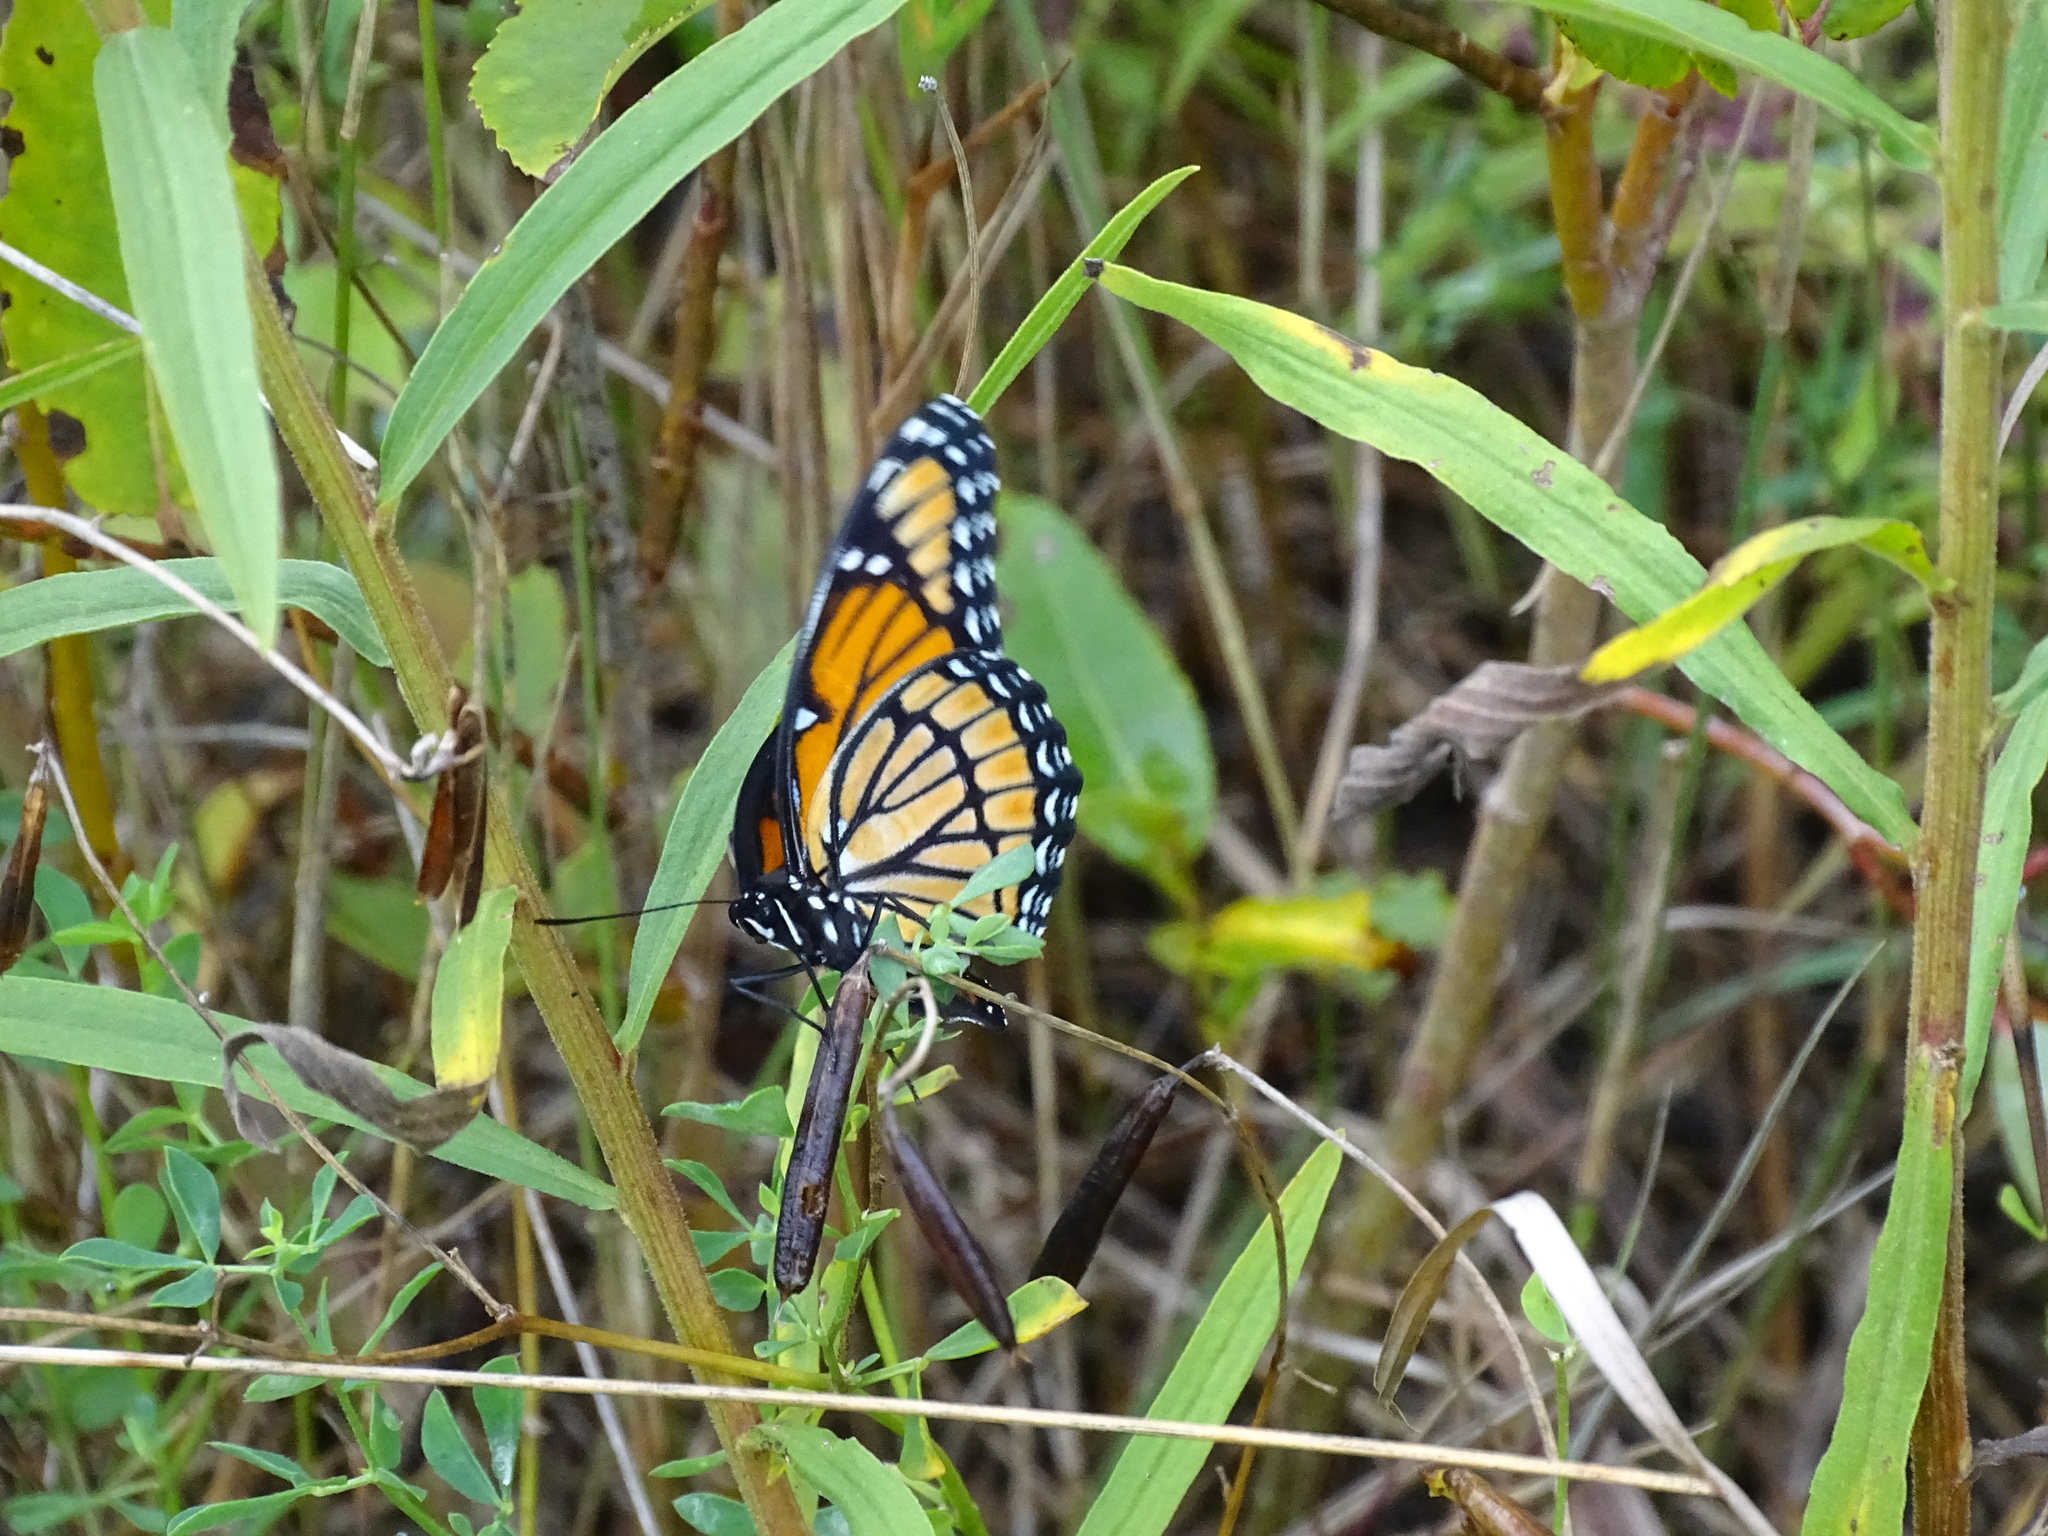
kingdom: Animalia
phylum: Arthropoda
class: Insecta
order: Lepidoptera
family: Nymphalidae
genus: Limenitis
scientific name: Limenitis archippus
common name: Viceroy
